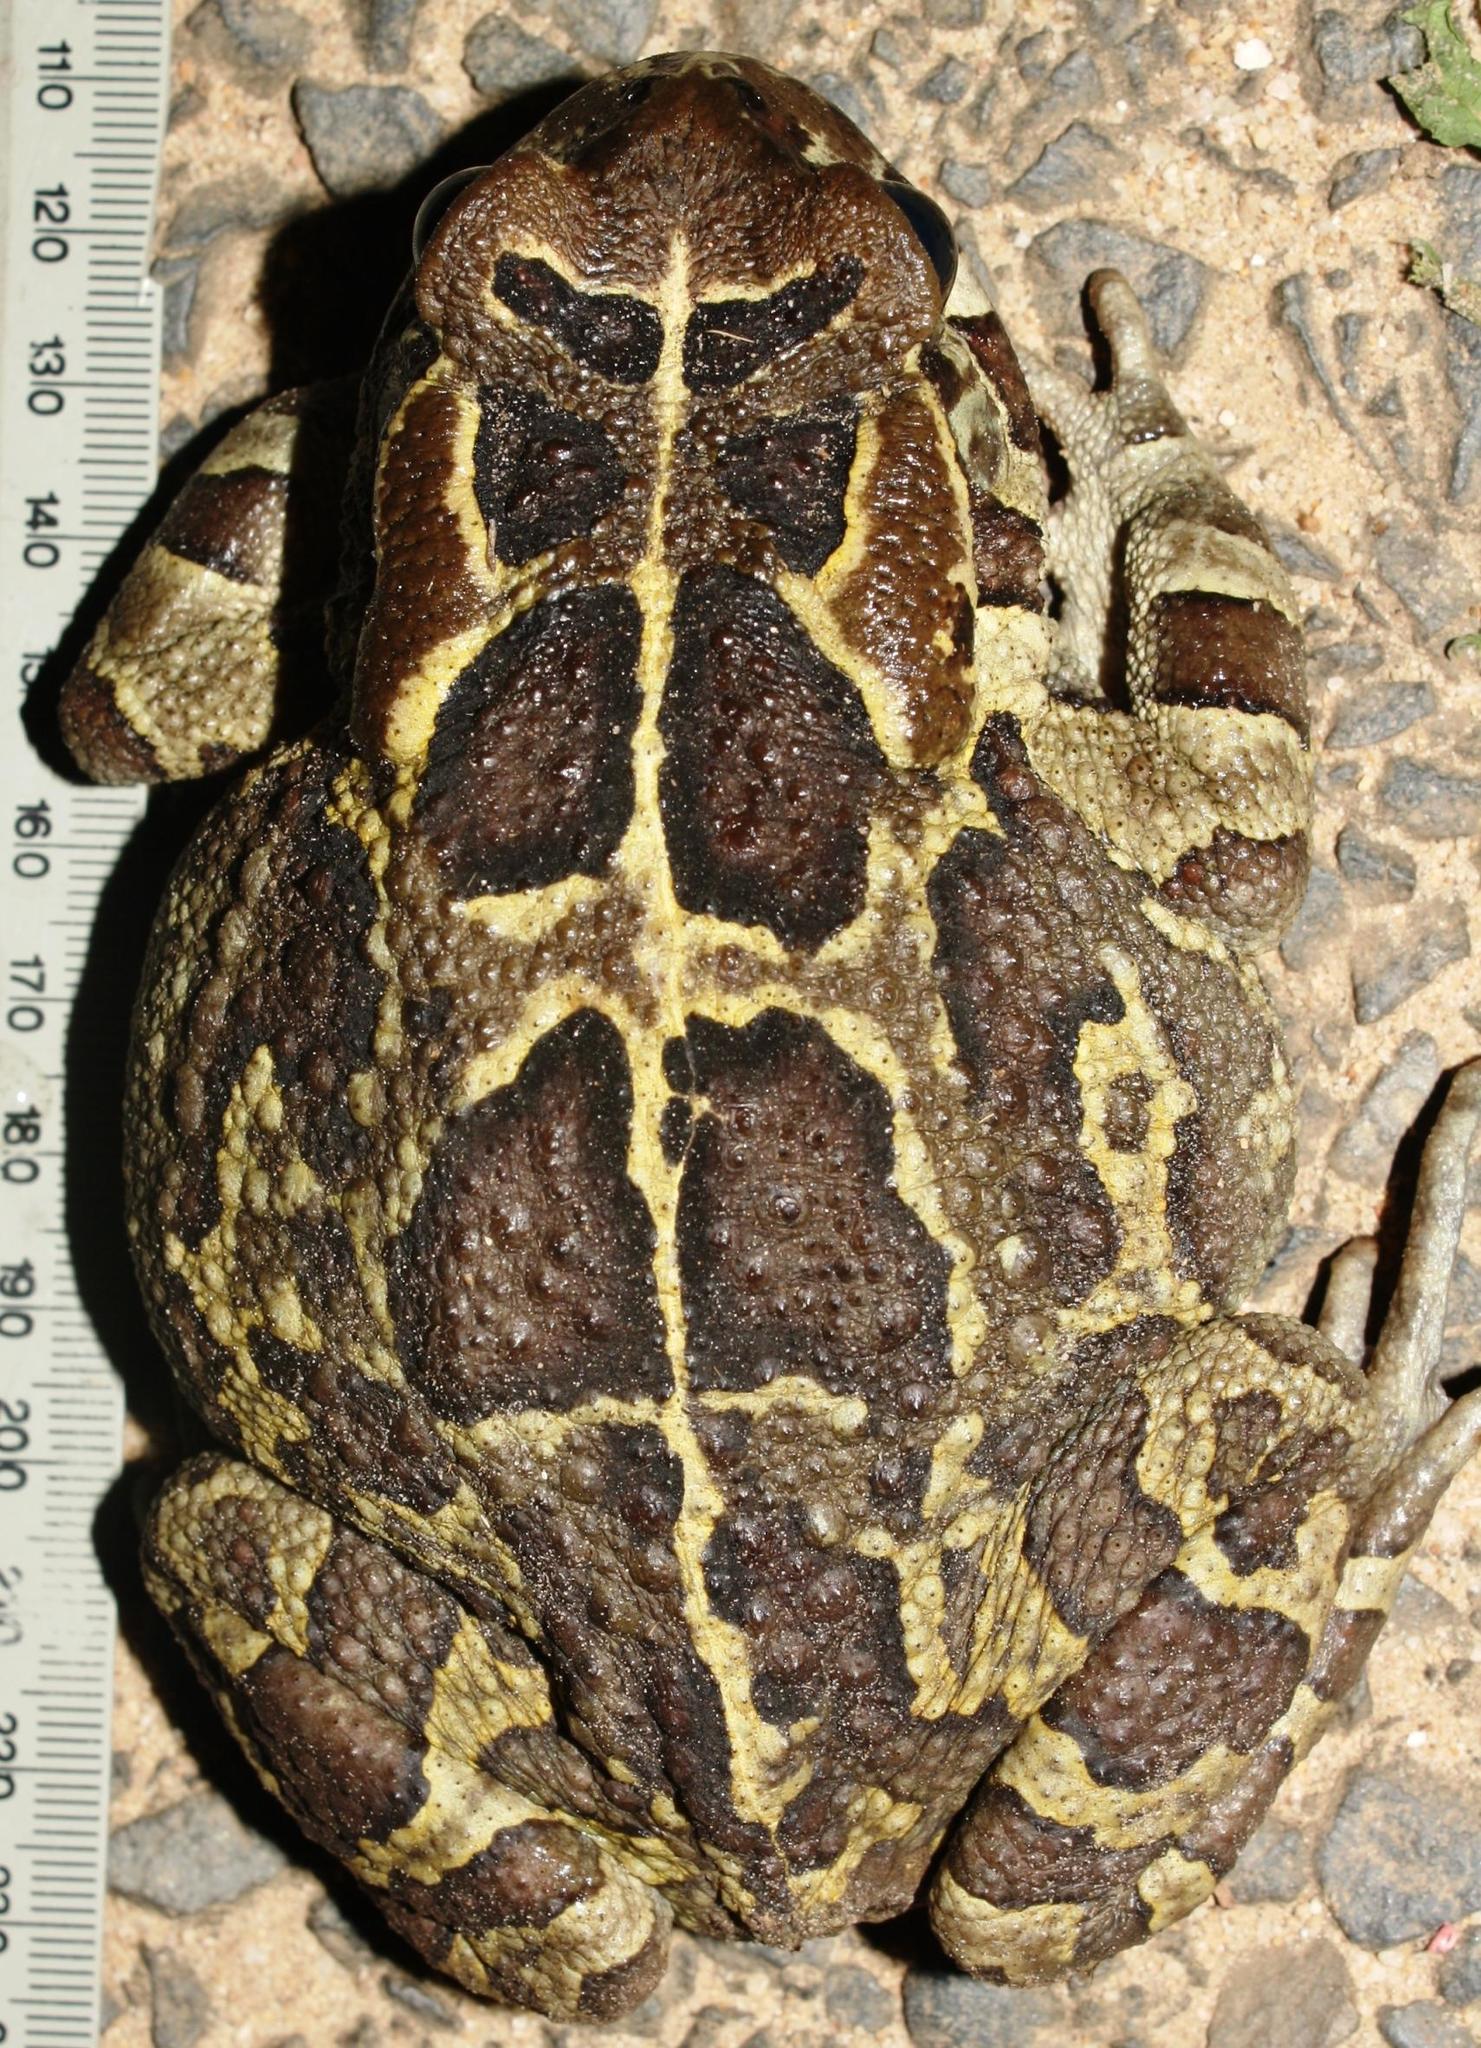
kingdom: Animalia
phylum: Chordata
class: Amphibia
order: Anura
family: Bufonidae
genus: Sclerophrys
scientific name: Sclerophrys pantherina
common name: Panther toad
